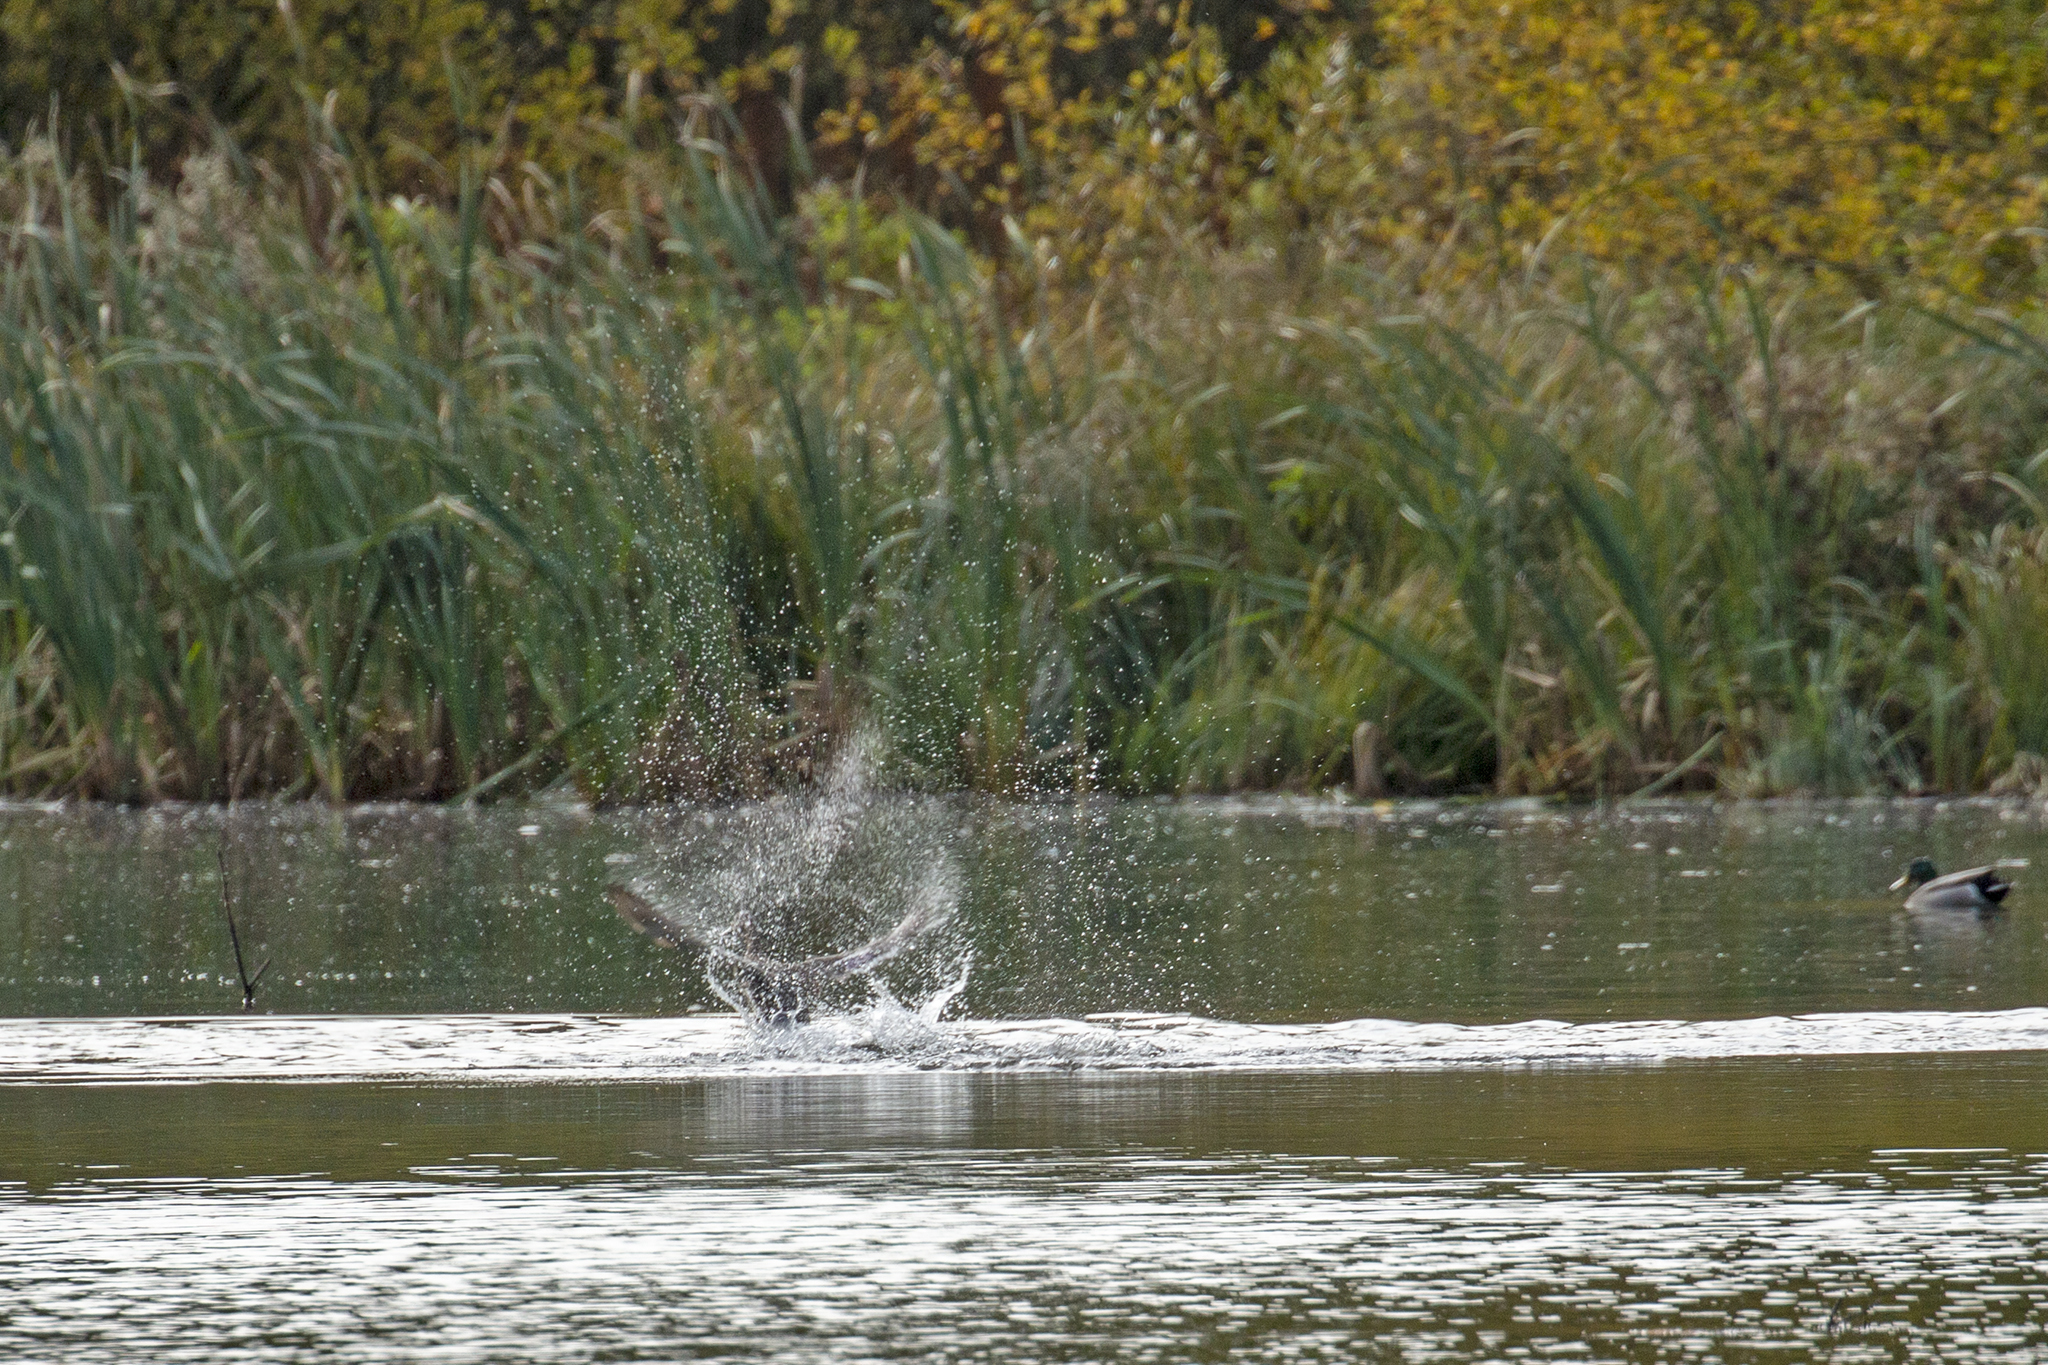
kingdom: Animalia
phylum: Chordata
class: Aves
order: Anseriformes
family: Anatidae
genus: Anas
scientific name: Anas platyrhynchos
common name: Mallard
